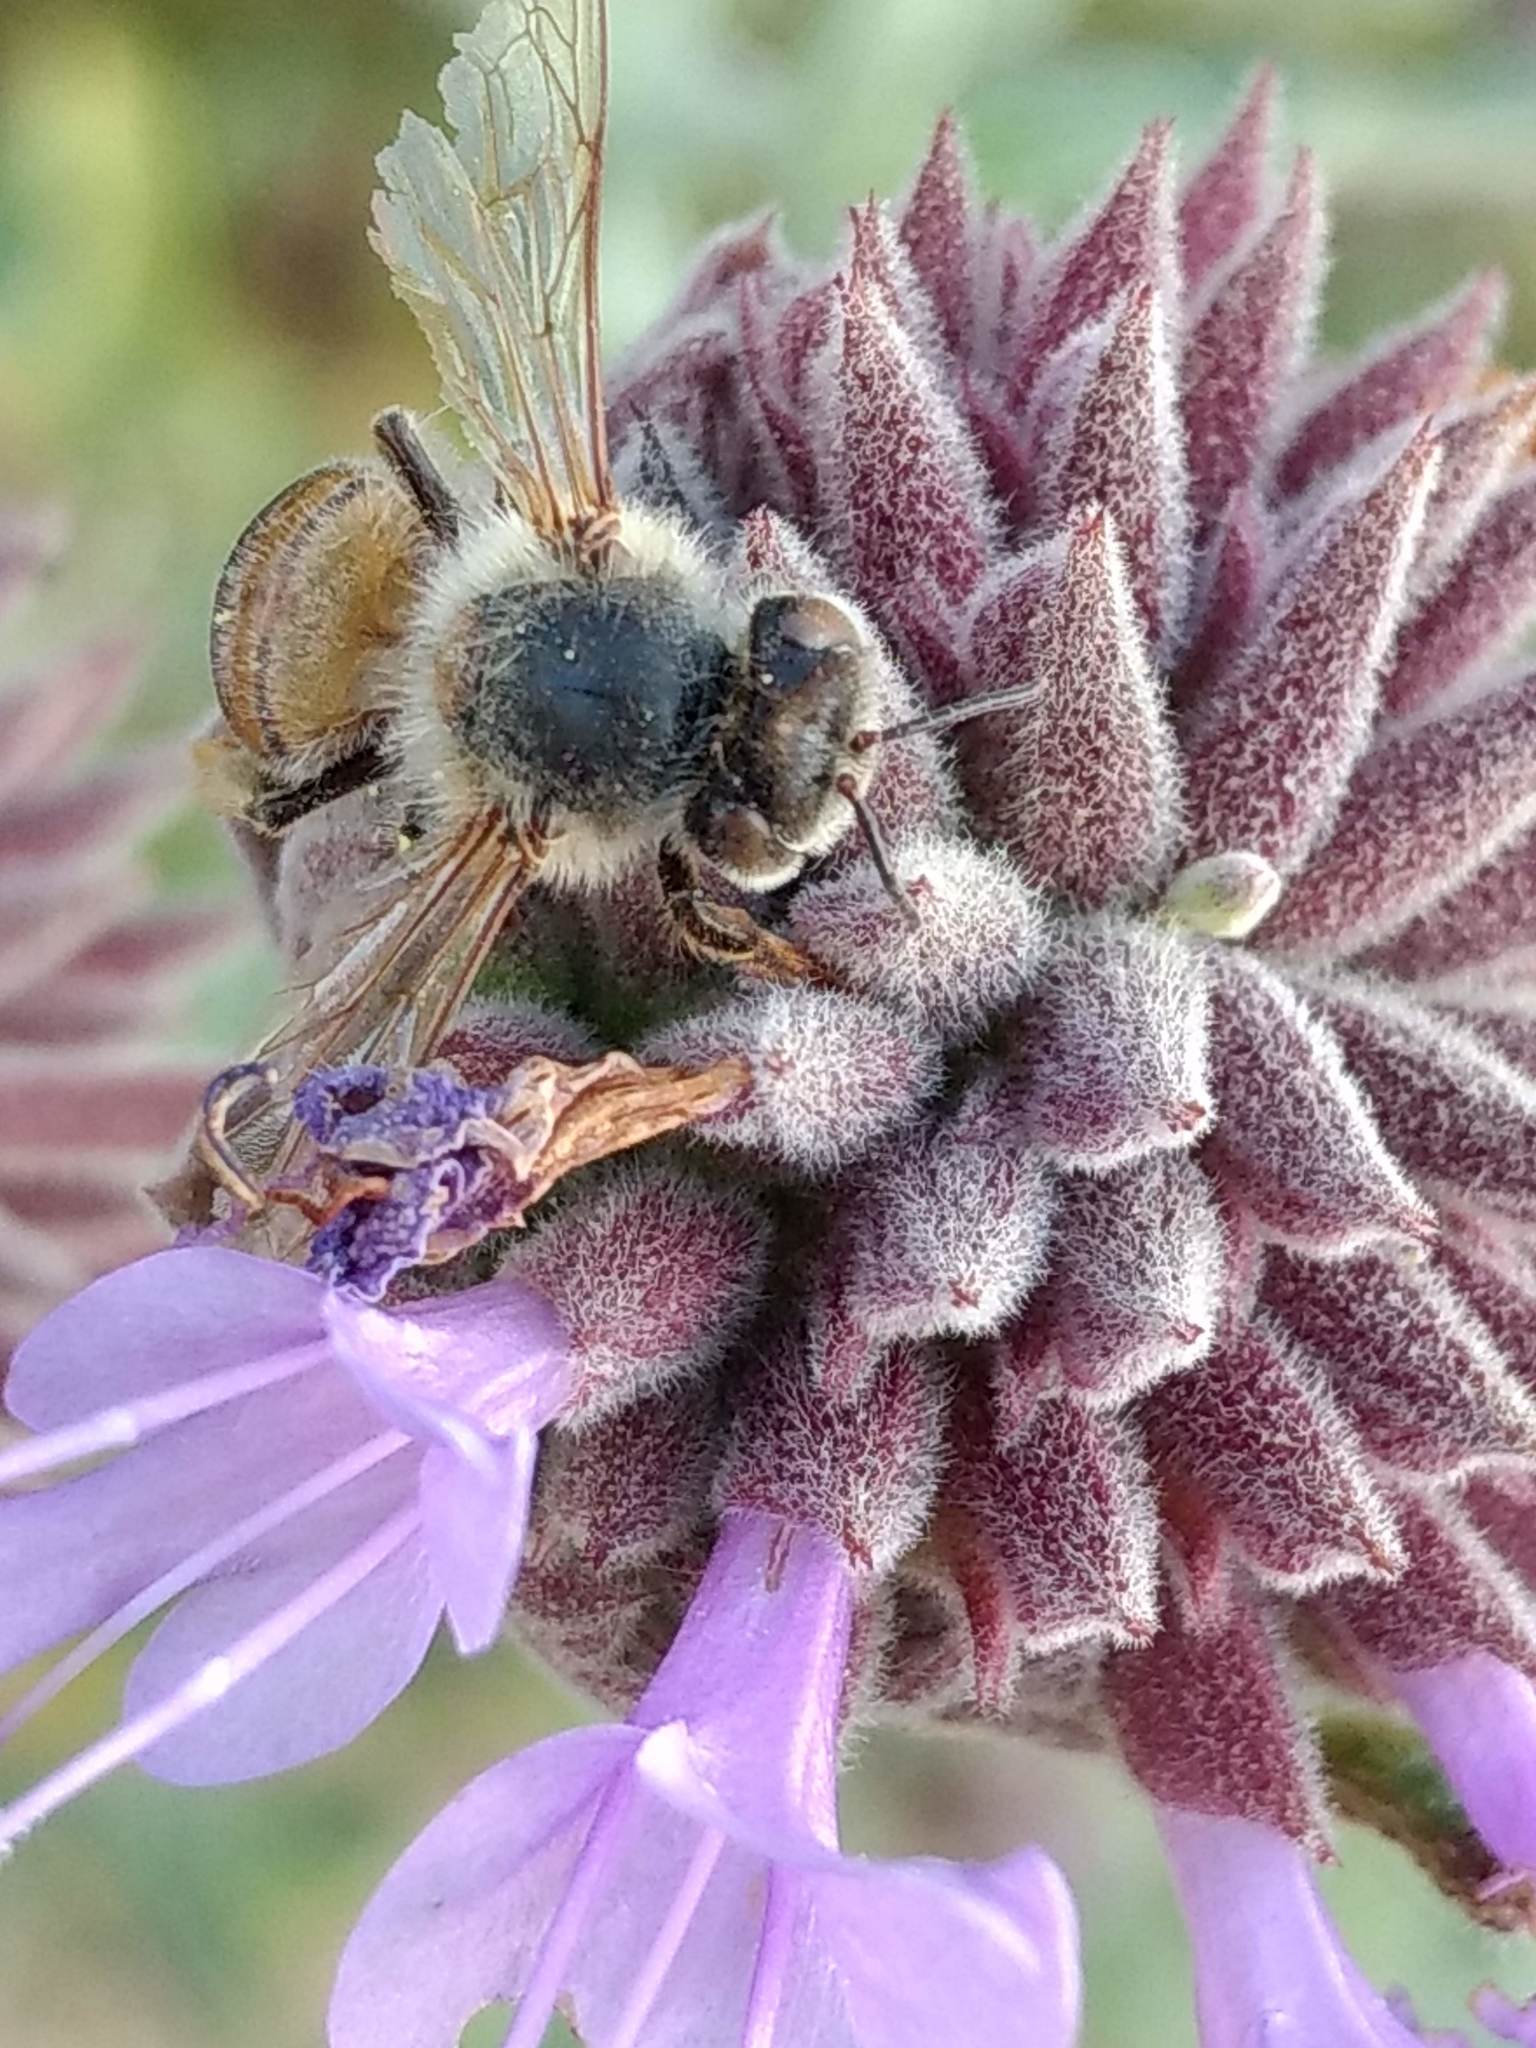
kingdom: Animalia
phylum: Arthropoda
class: Insecta
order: Hymenoptera
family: Apidae
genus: Apis
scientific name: Apis mellifera
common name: Honey bee
